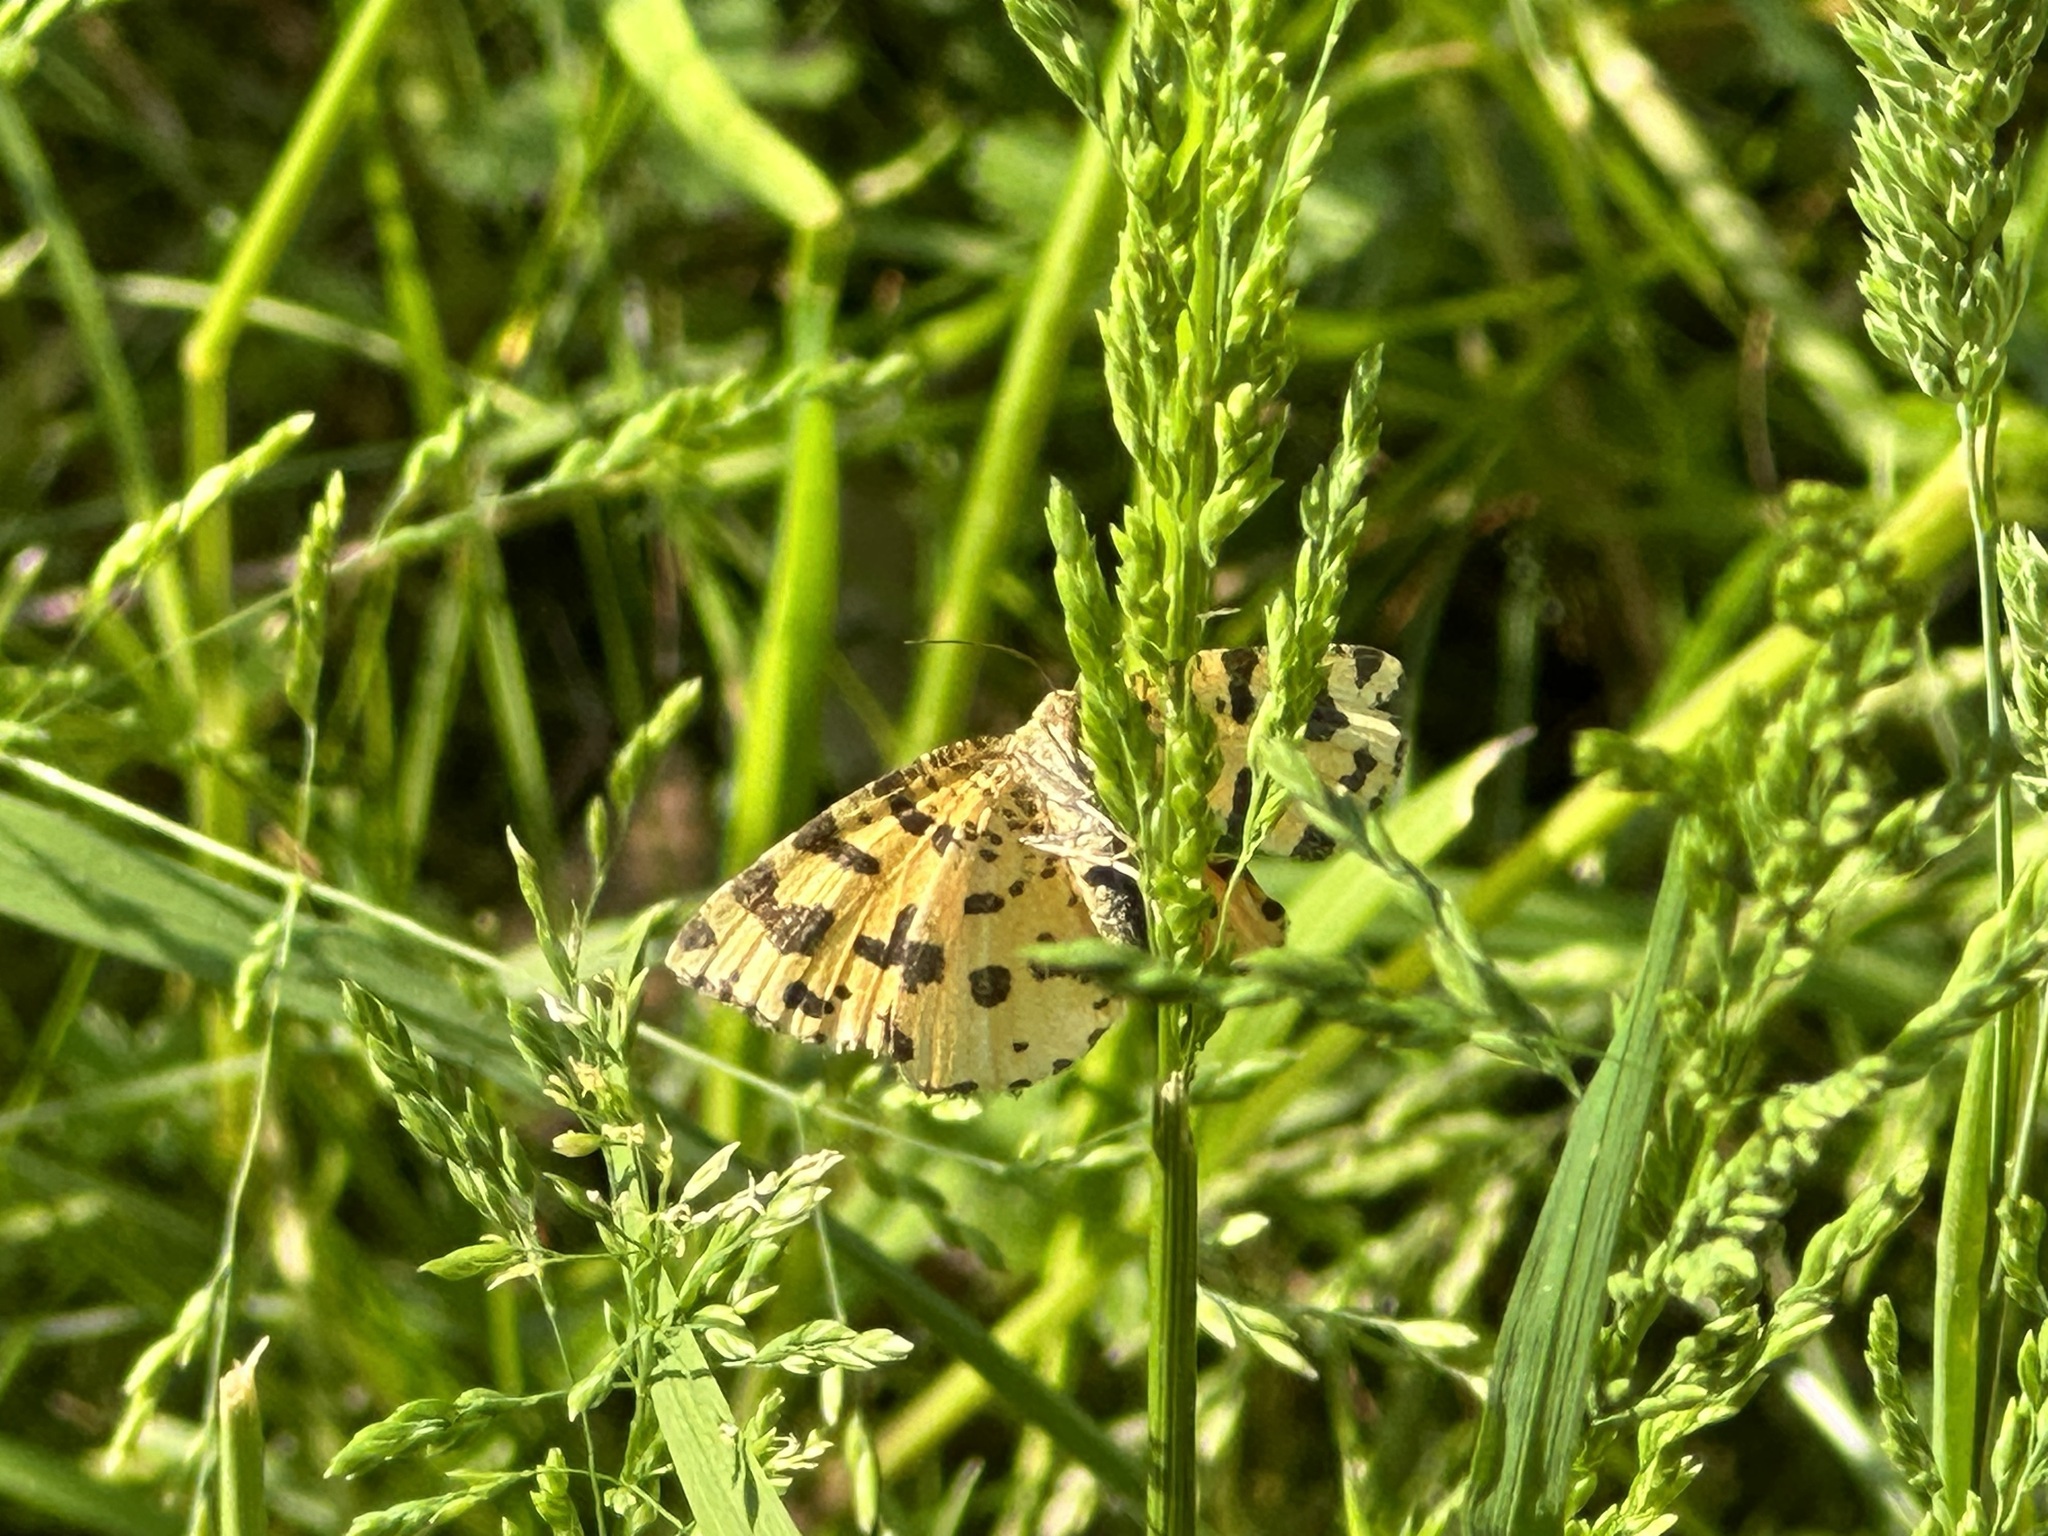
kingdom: Animalia
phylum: Arthropoda
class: Insecta
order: Lepidoptera
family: Geometridae
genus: Pseudopanthera
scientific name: Pseudopanthera macularia
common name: Speckled yellow
